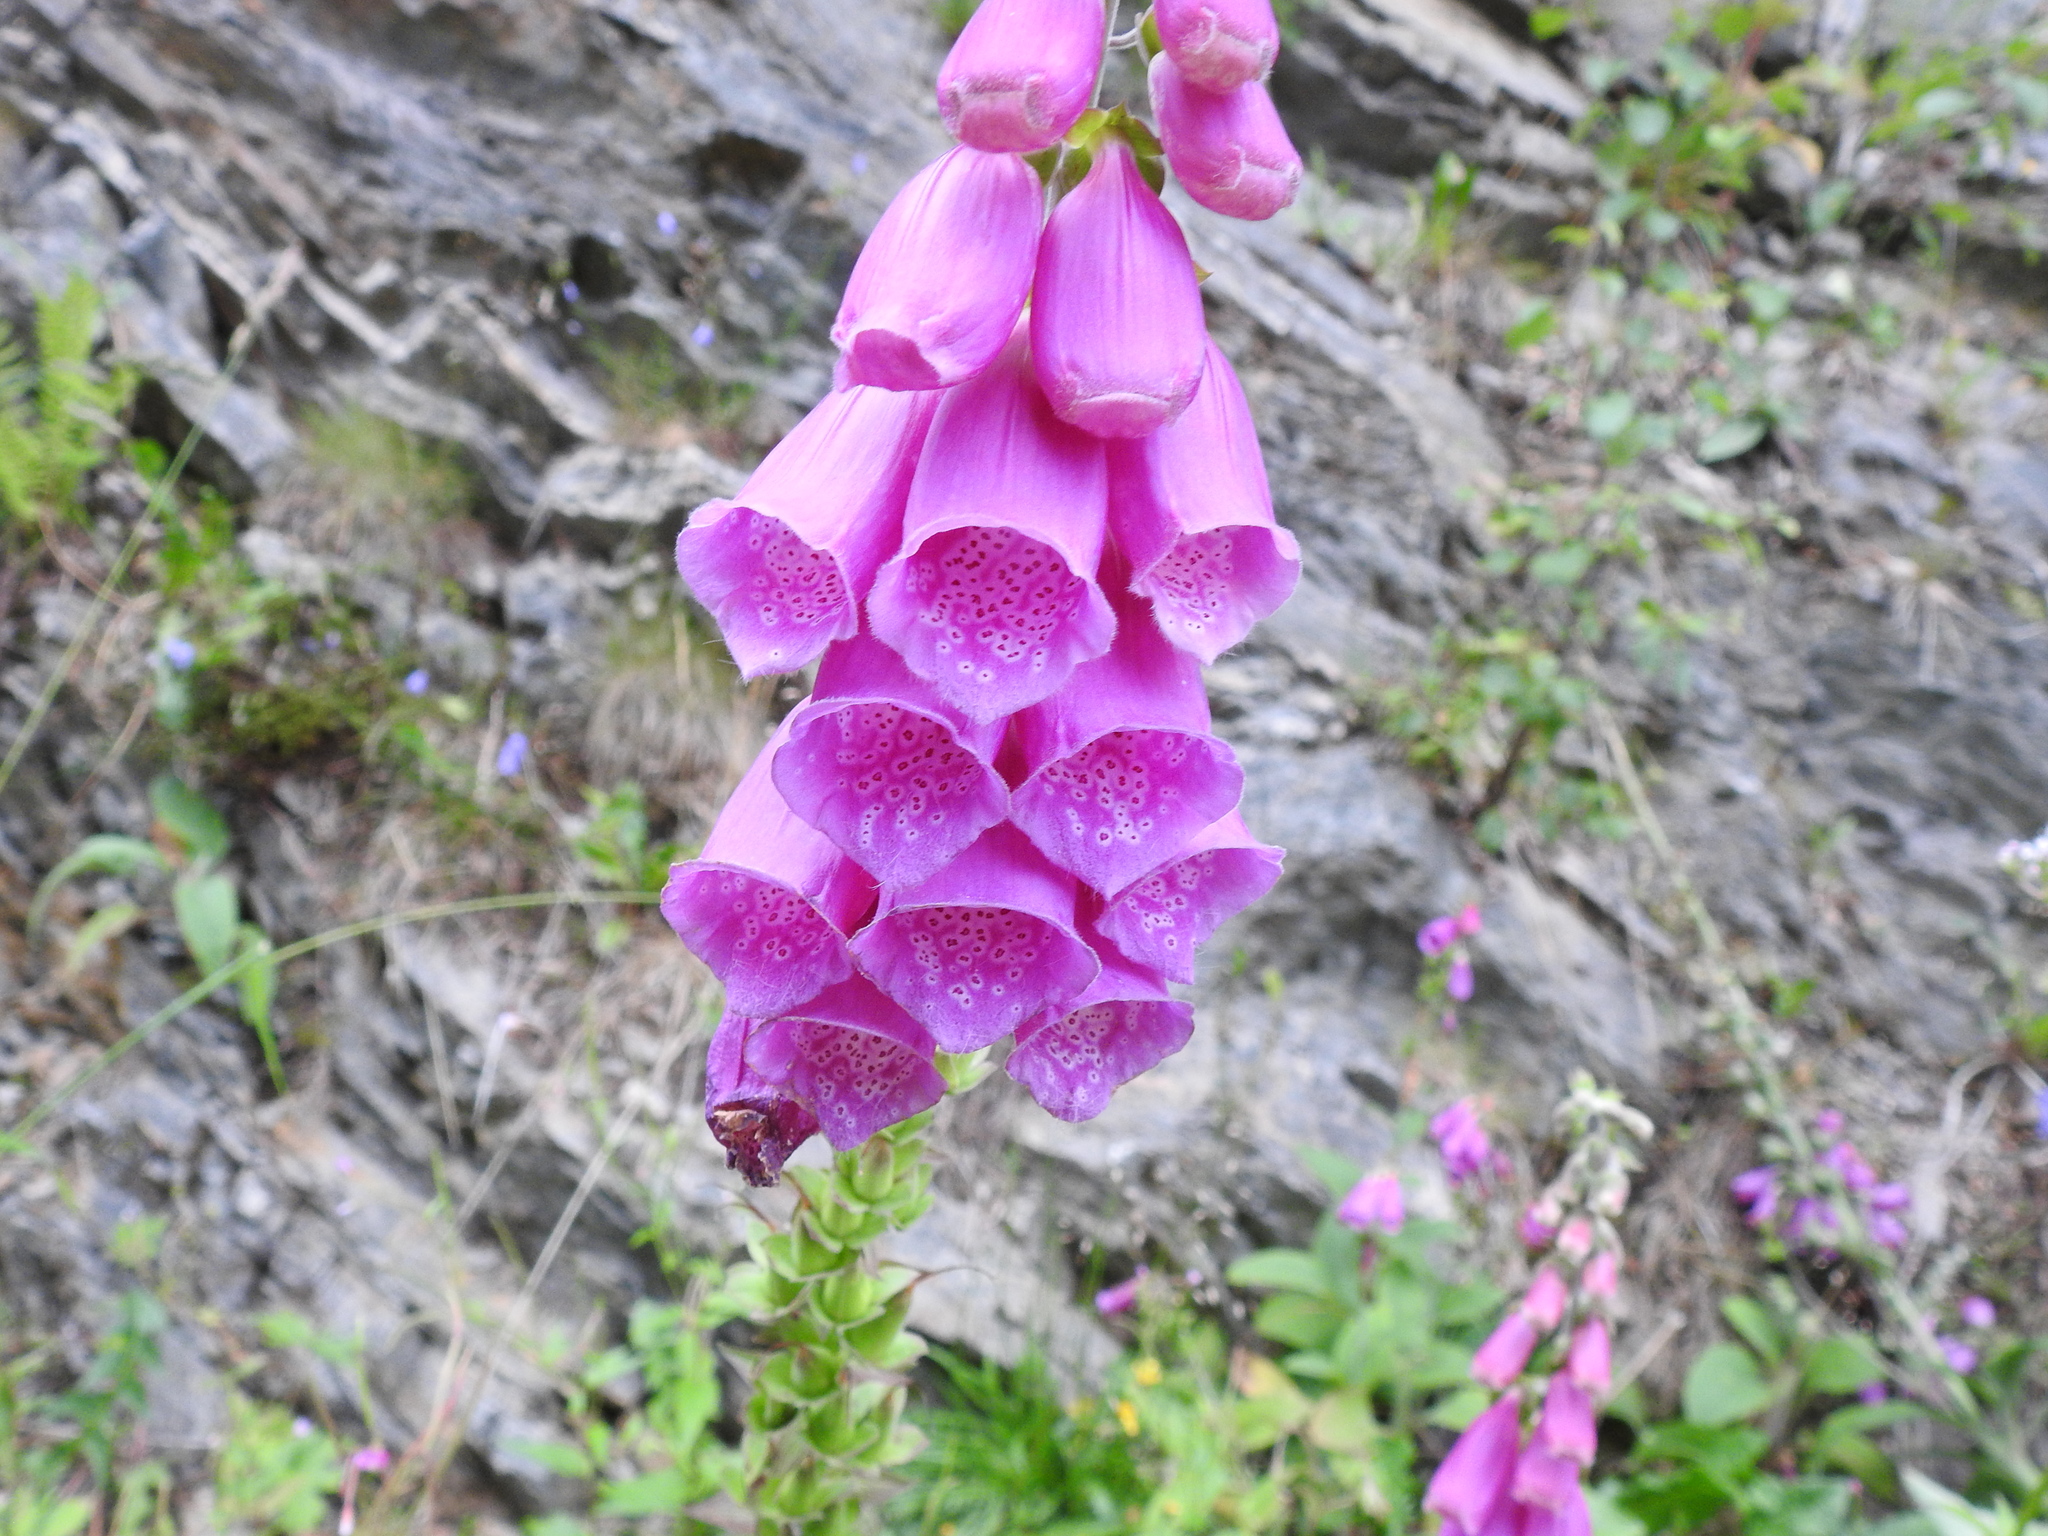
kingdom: Plantae
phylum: Tracheophyta
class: Magnoliopsida
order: Lamiales
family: Plantaginaceae
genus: Digitalis
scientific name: Digitalis purpurea
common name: Foxglove
